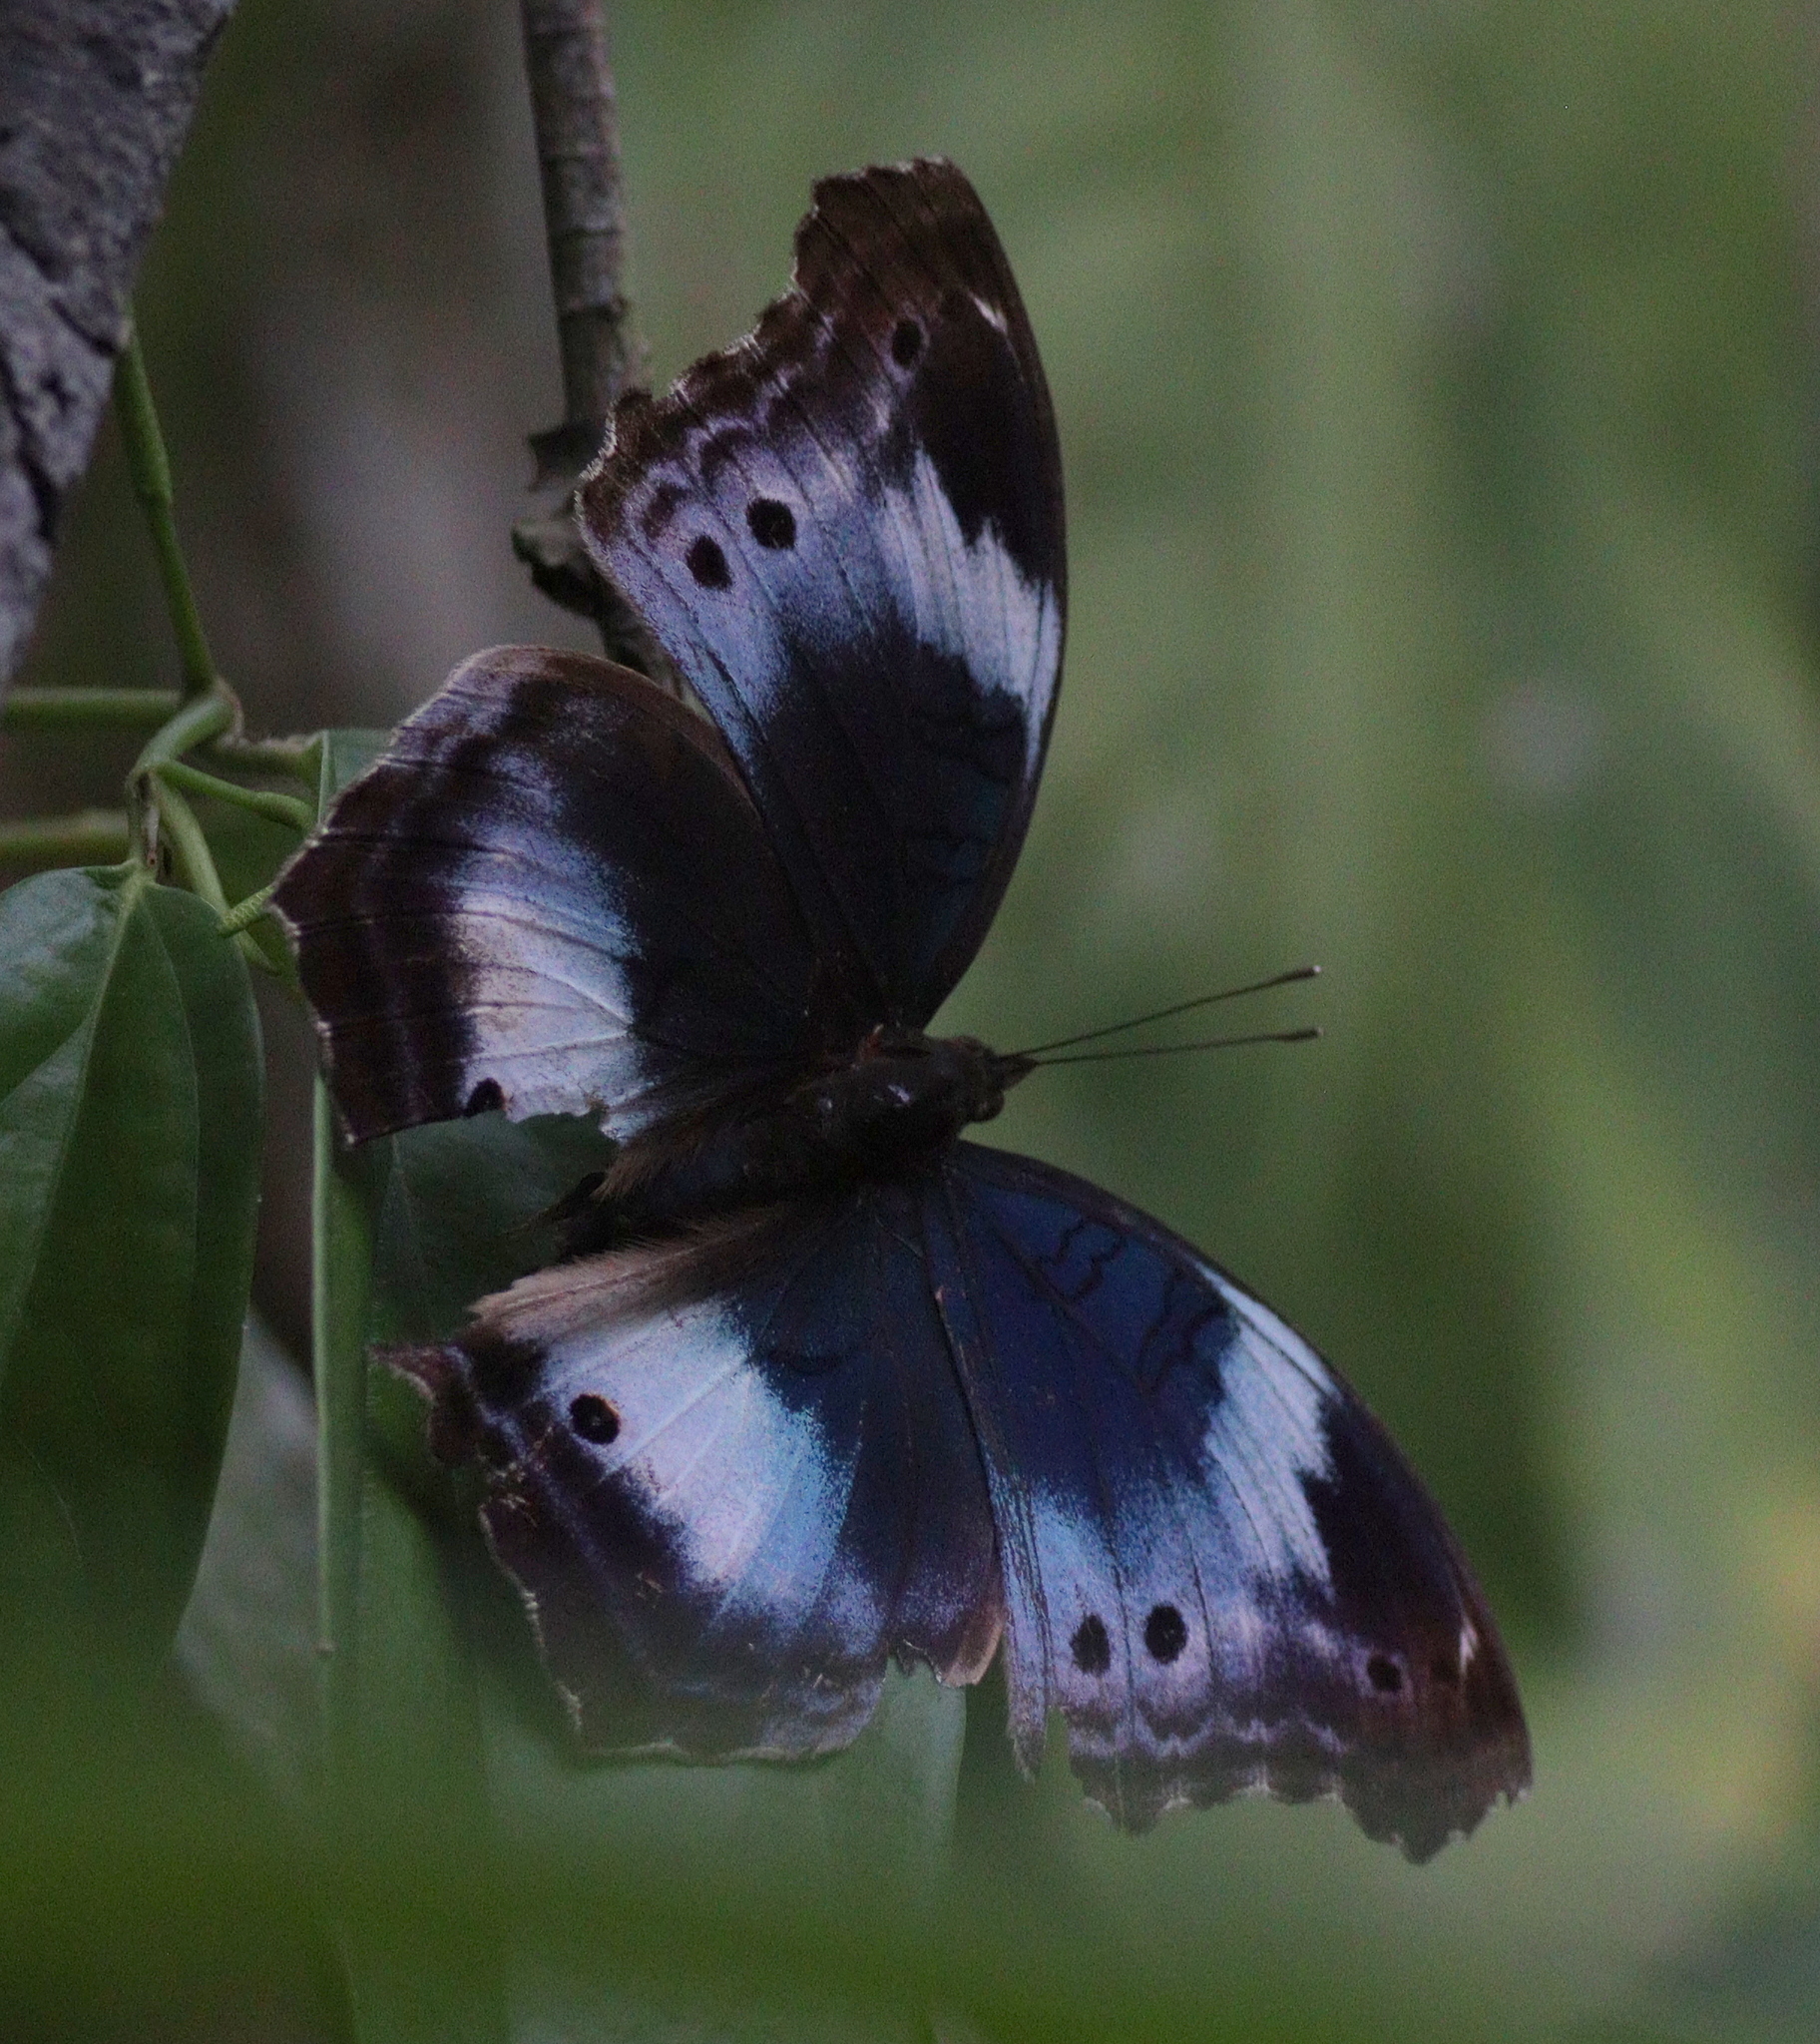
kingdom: Animalia
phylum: Arthropoda
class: Insecta
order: Lepidoptera
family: Nymphalidae
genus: Junonia
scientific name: Junonia
